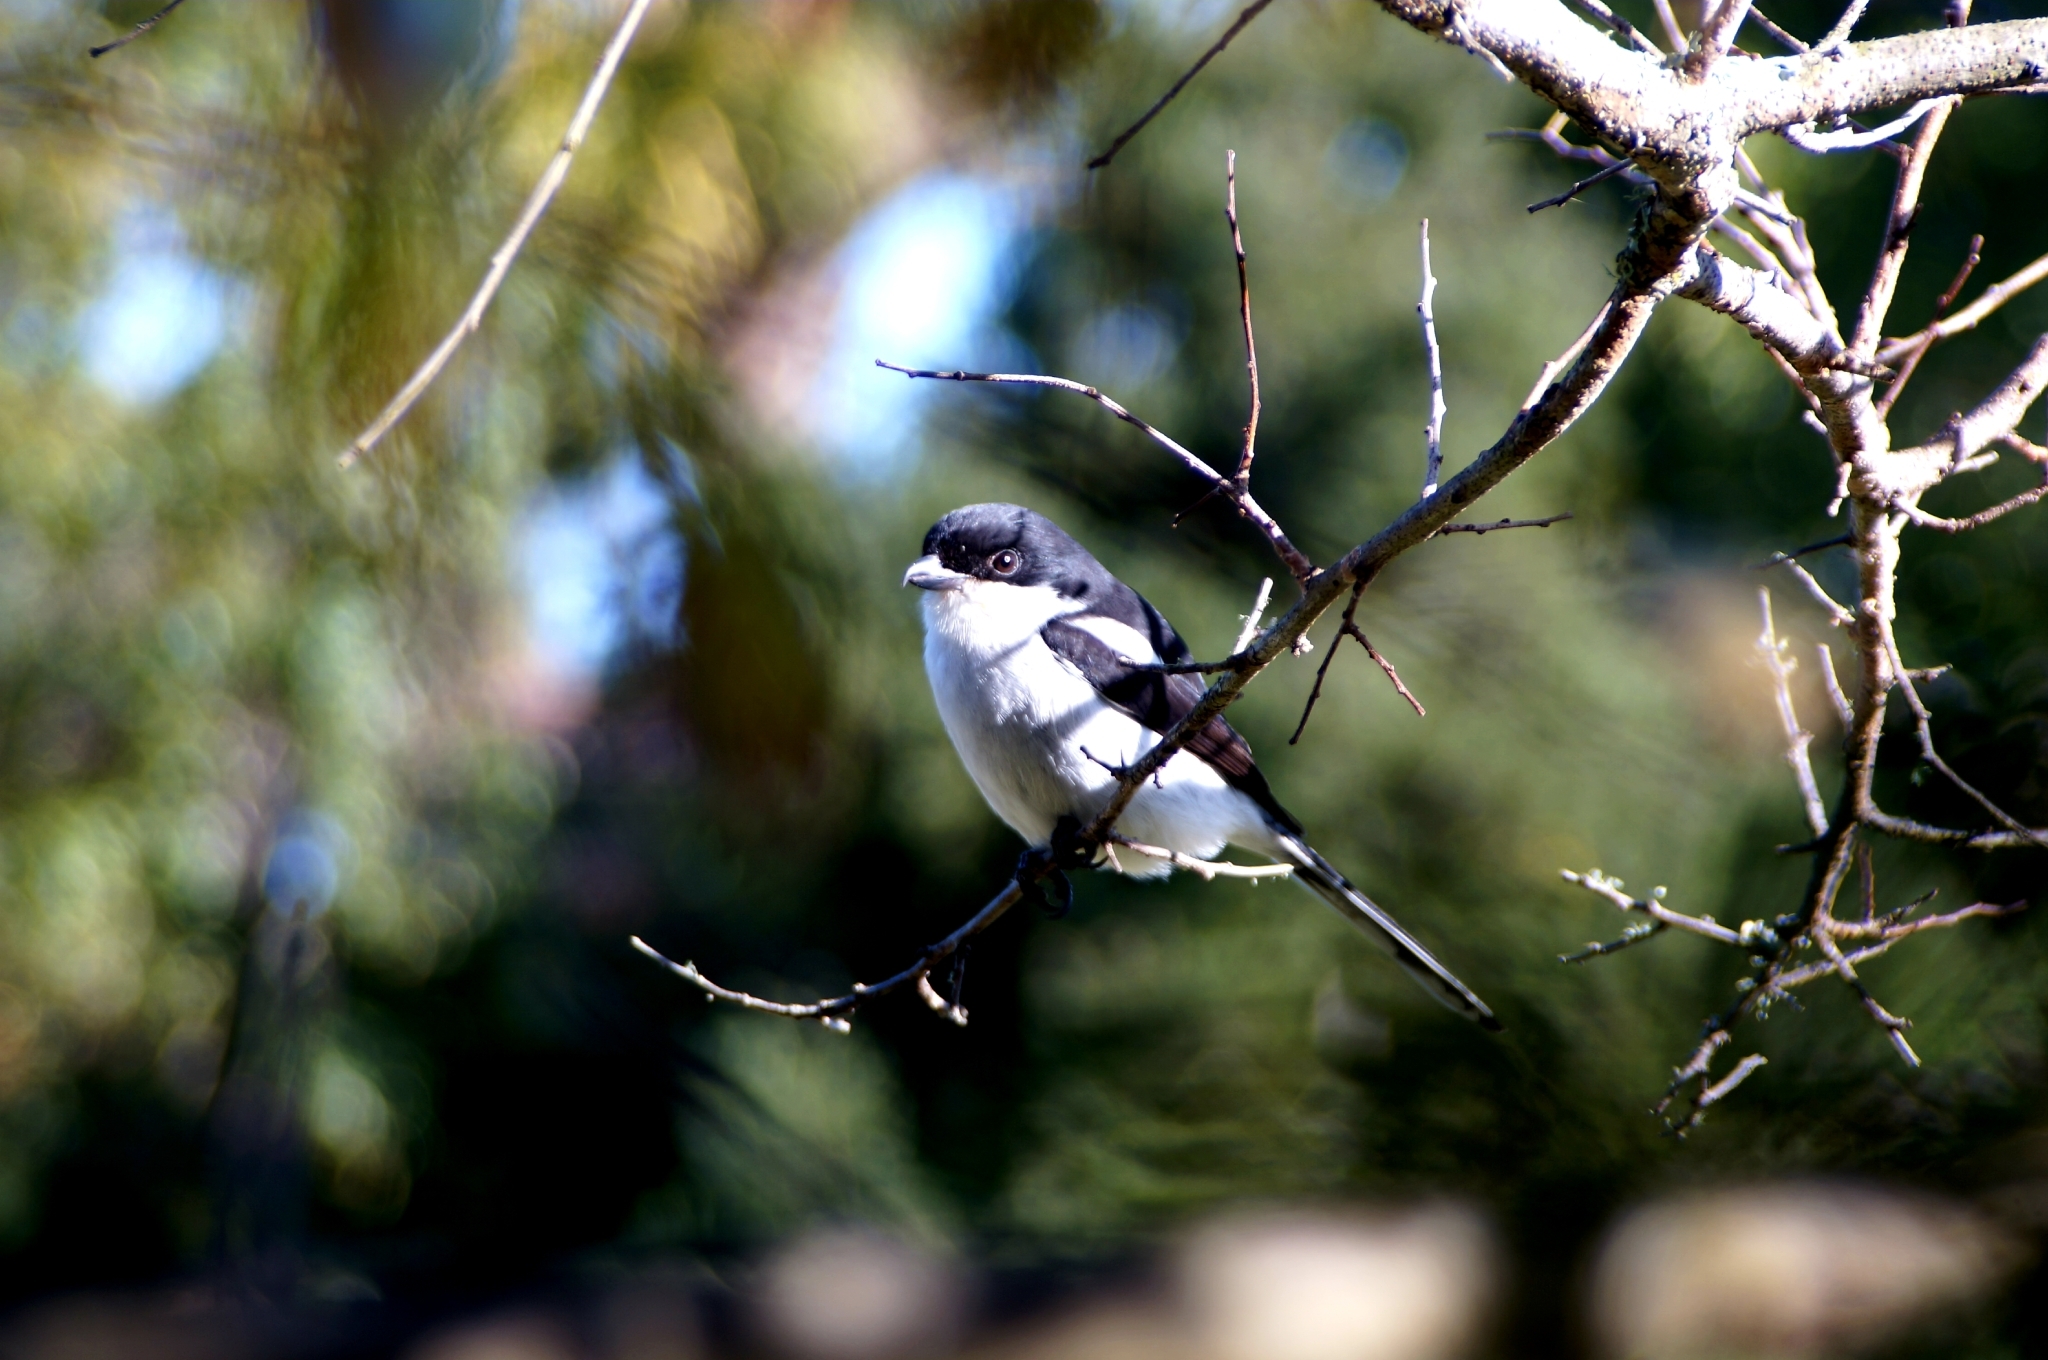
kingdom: Animalia
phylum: Chordata
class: Aves
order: Passeriformes
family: Laniidae
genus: Lanius
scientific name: Lanius collaris
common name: Southern fiscal
